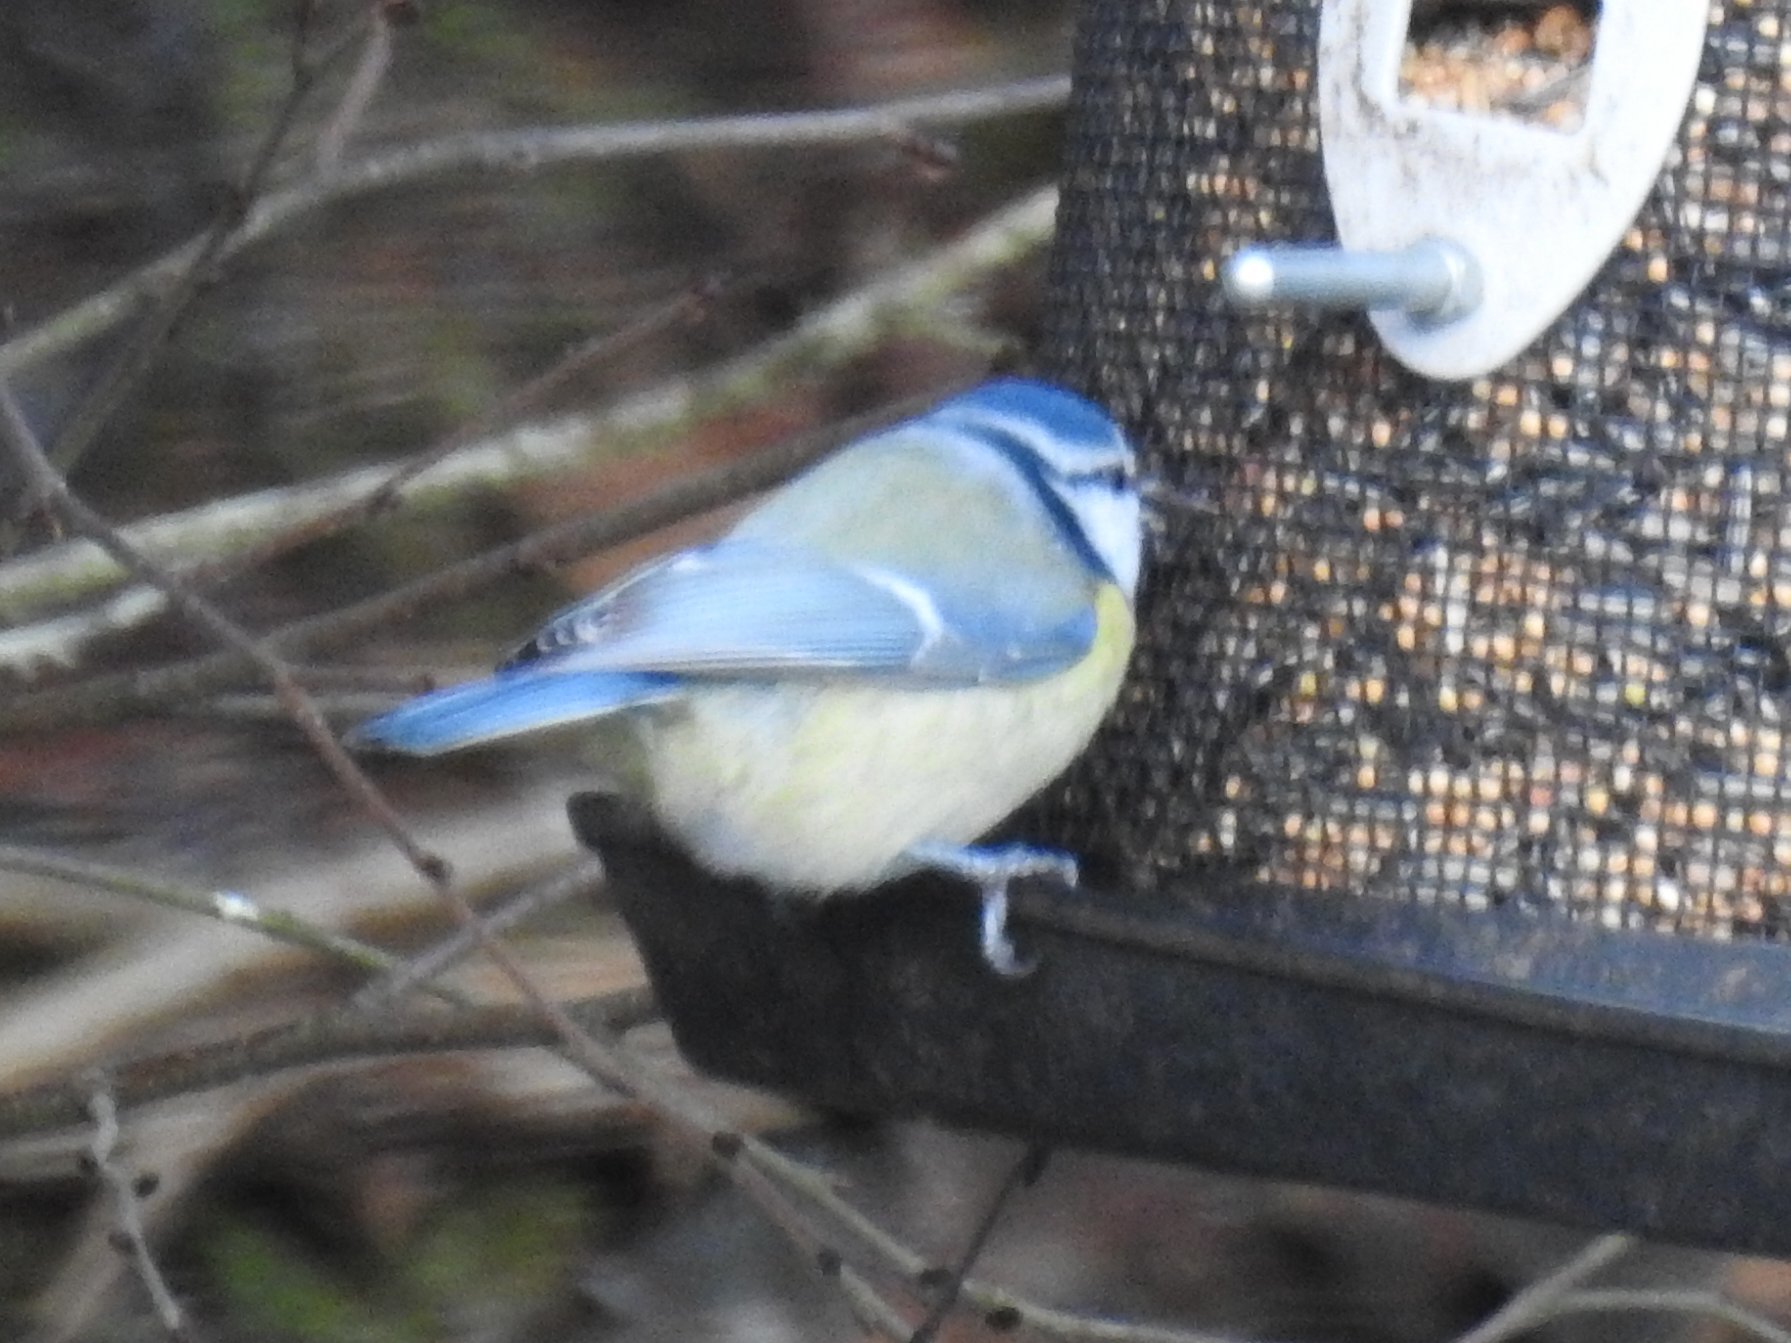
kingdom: Animalia
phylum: Chordata
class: Aves
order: Passeriformes
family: Paridae
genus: Cyanistes
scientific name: Cyanistes caeruleus
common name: Eurasian blue tit
